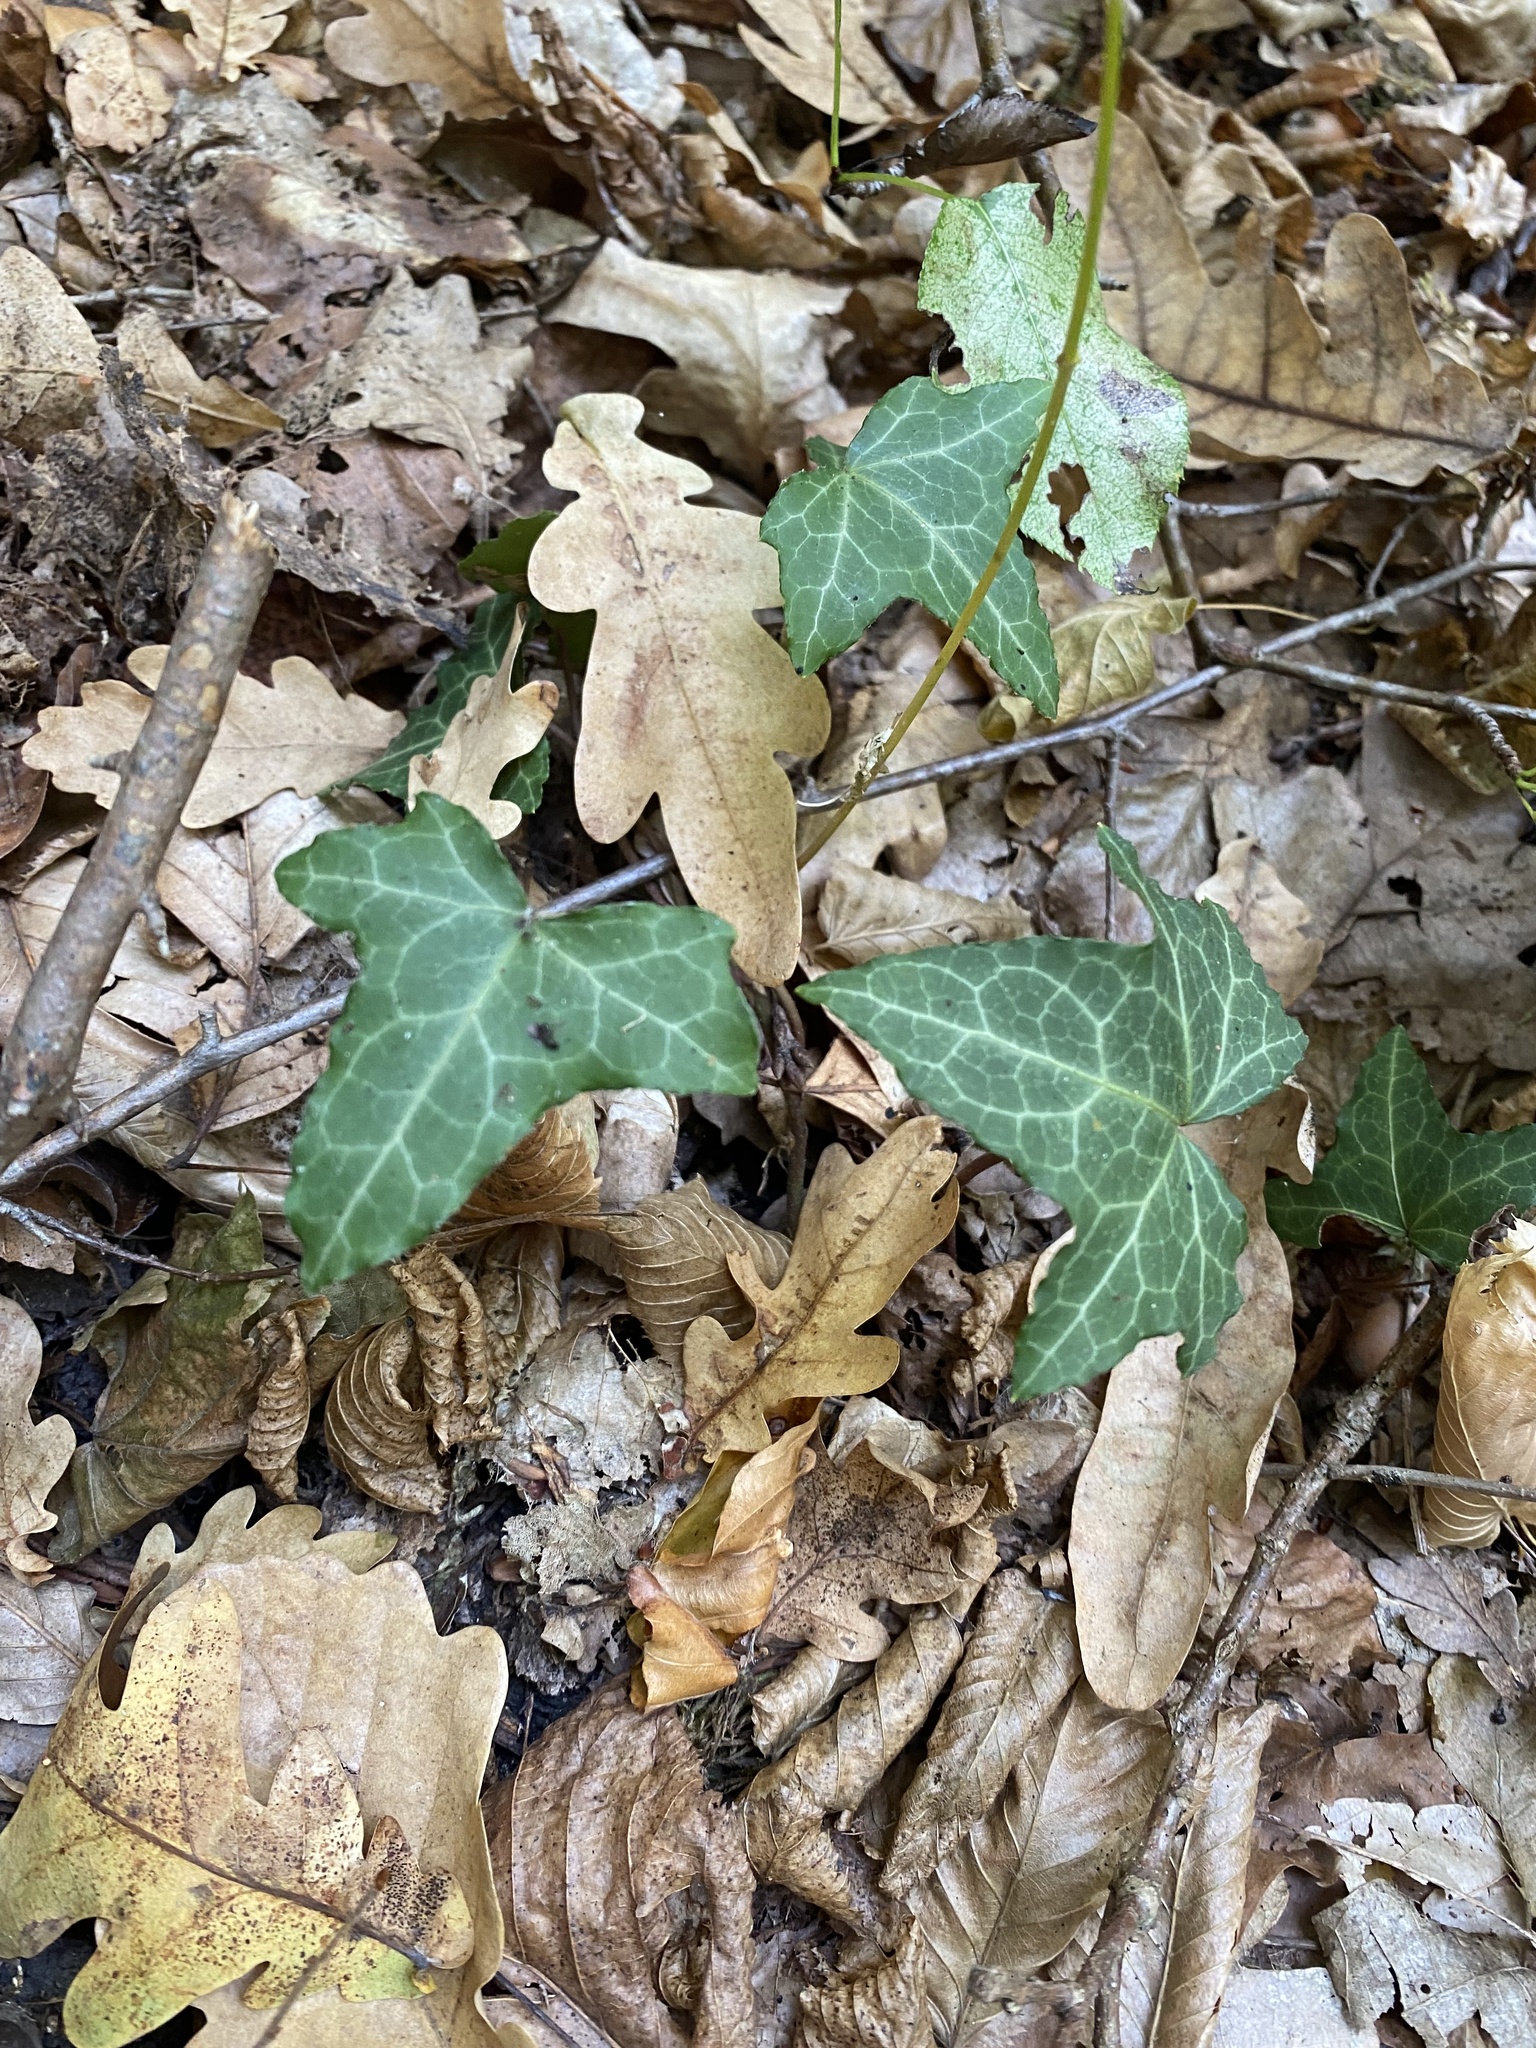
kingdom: Plantae
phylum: Tracheophyta
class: Magnoliopsida
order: Apiales
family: Araliaceae
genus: Hedera
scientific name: Hedera helix
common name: Ivy
